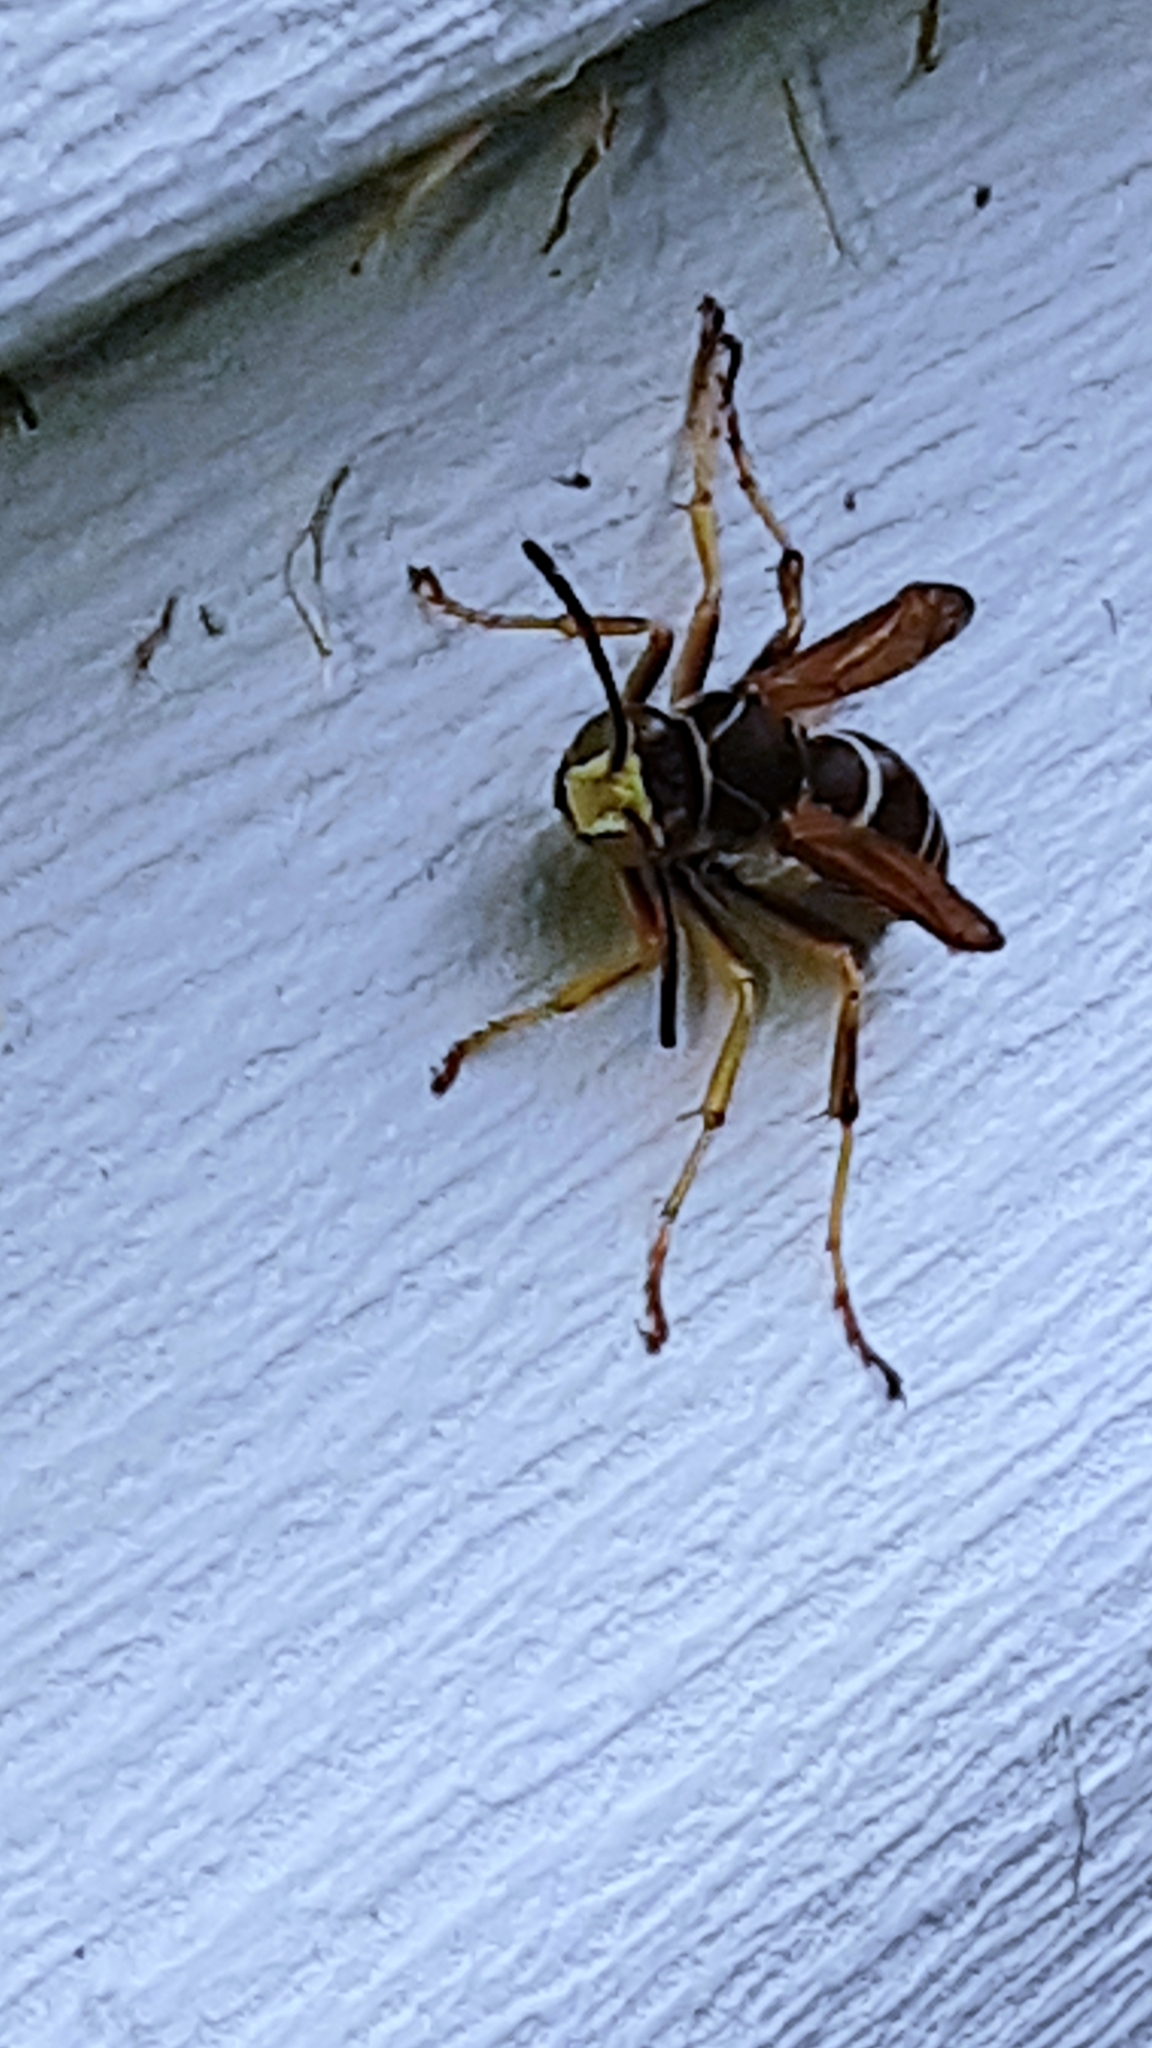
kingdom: Animalia
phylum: Arthropoda
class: Insecta
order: Hymenoptera
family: Eumenidae
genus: Polistes
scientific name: Polistes fuscatus
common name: Dark paper wasp
